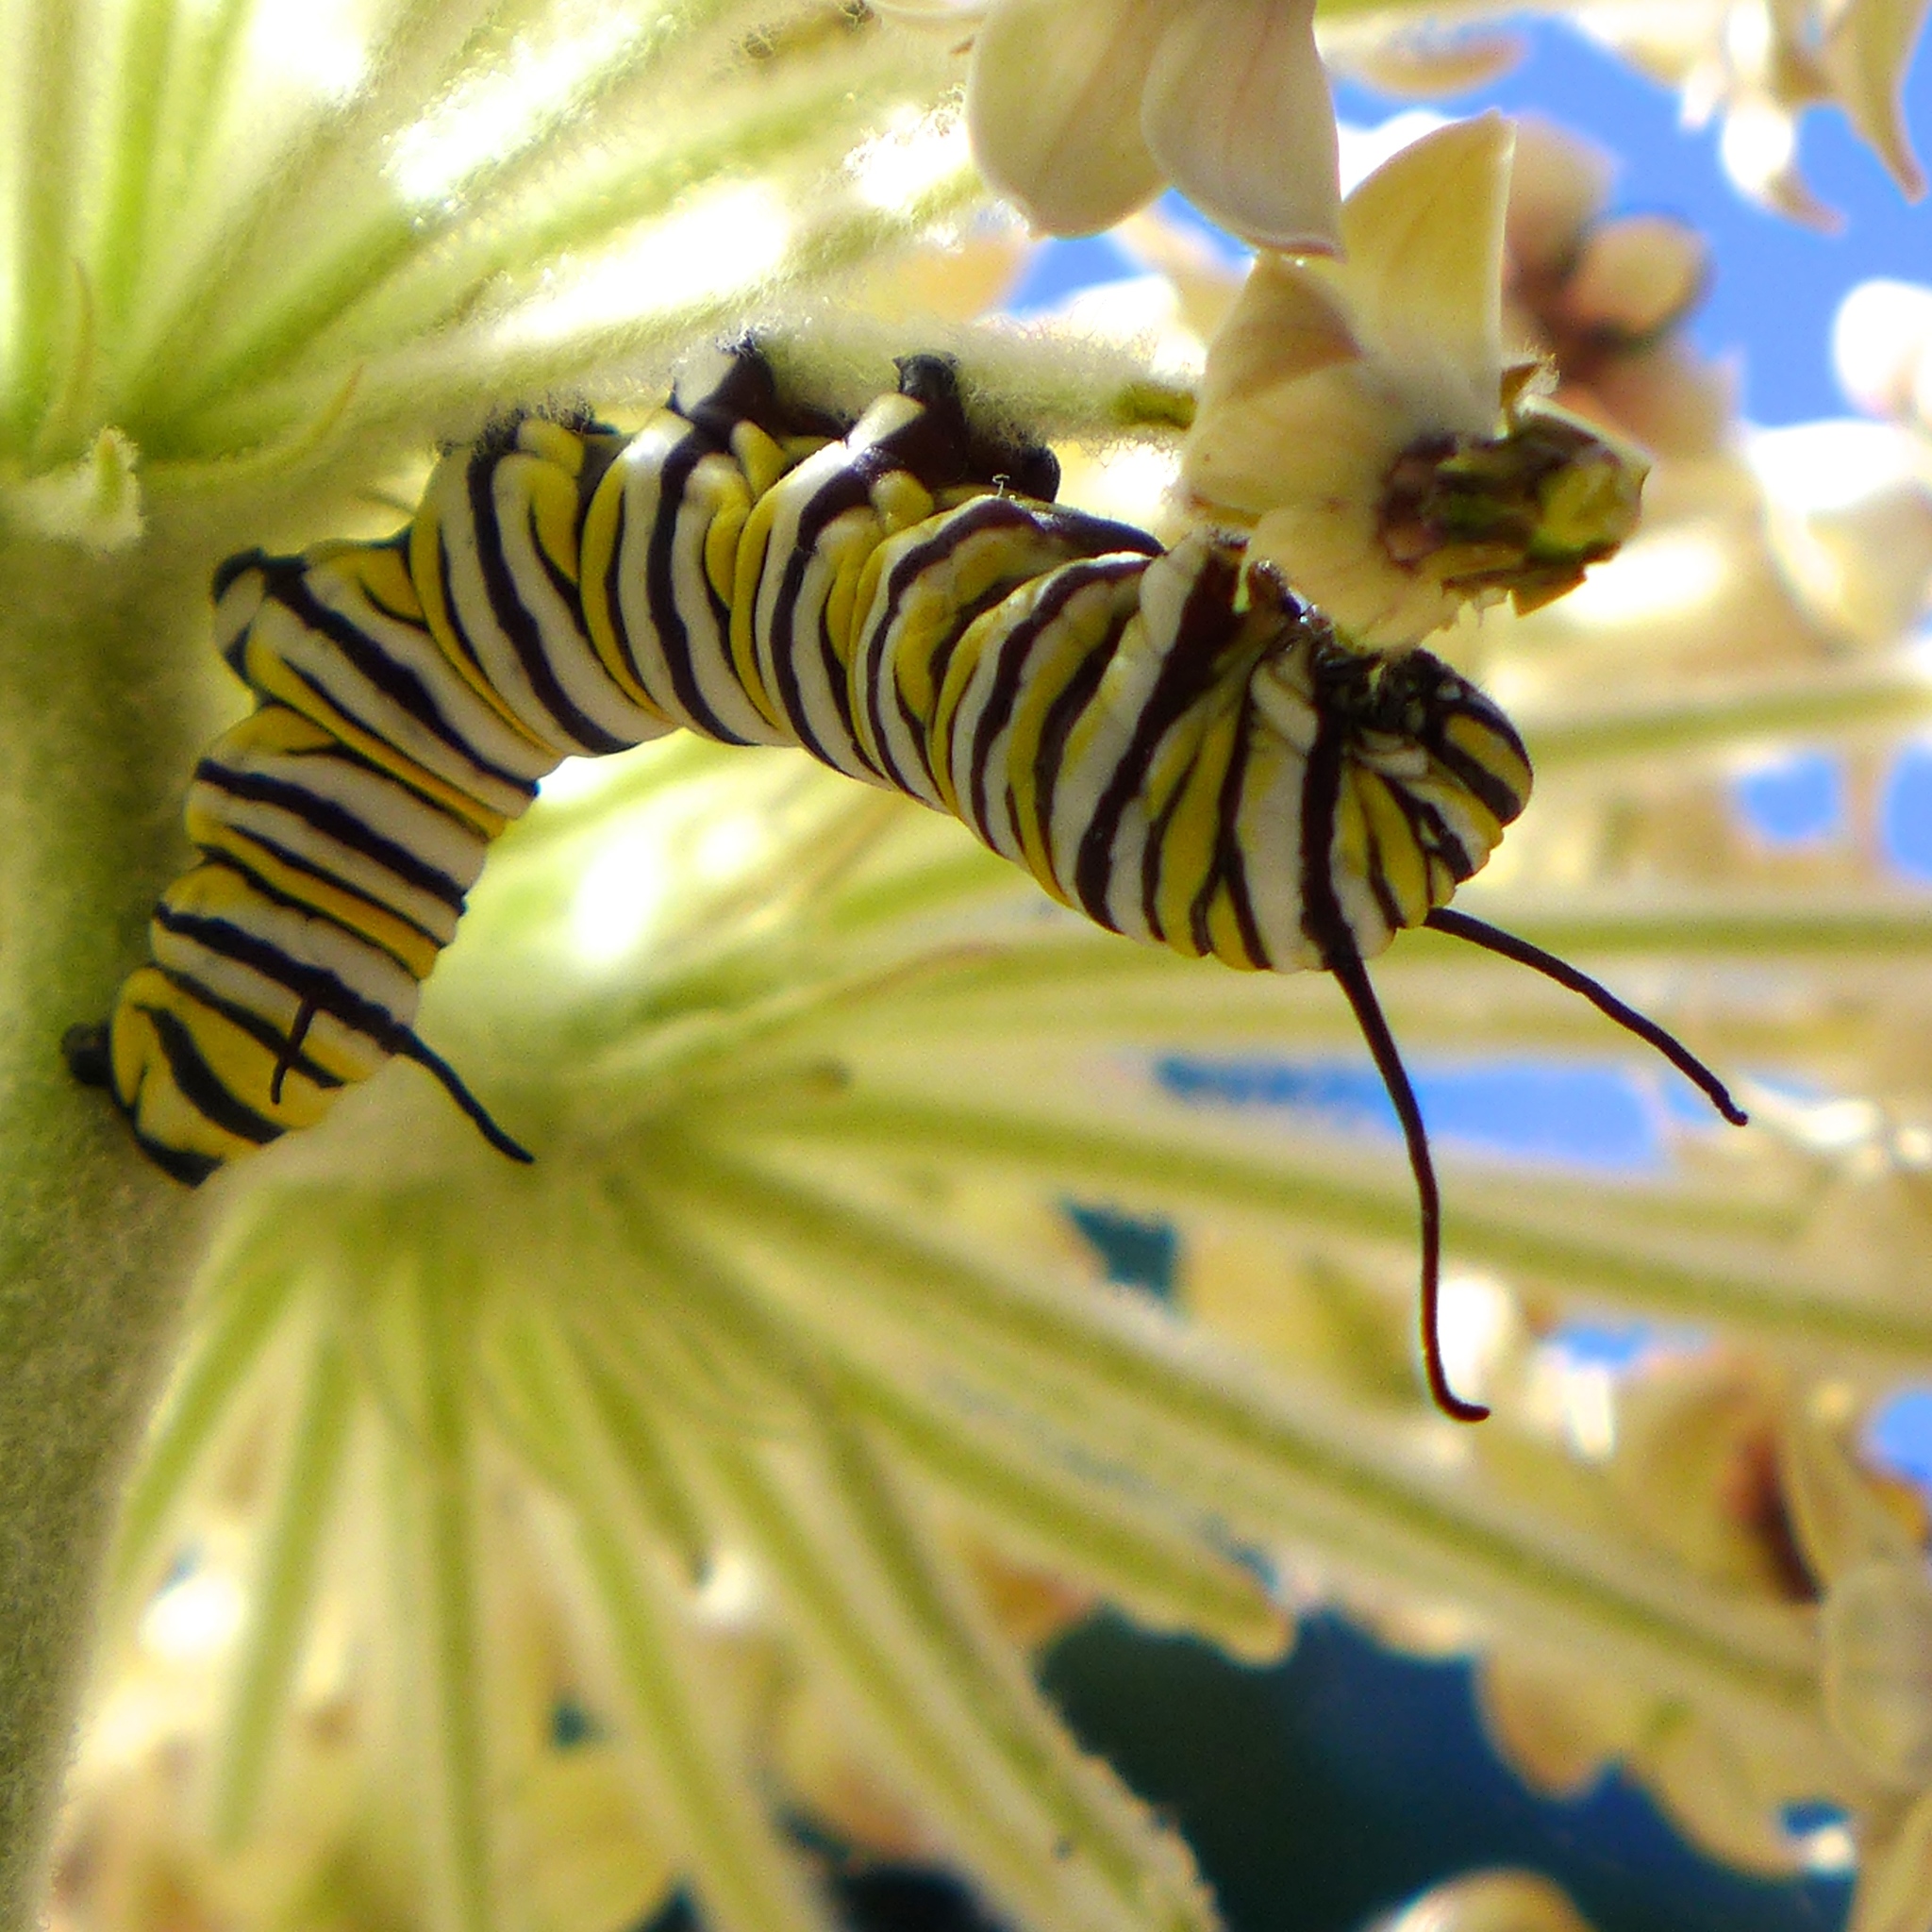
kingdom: Animalia
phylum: Arthropoda
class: Insecta
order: Lepidoptera
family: Nymphalidae
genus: Danaus
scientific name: Danaus plexippus
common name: Monarch
